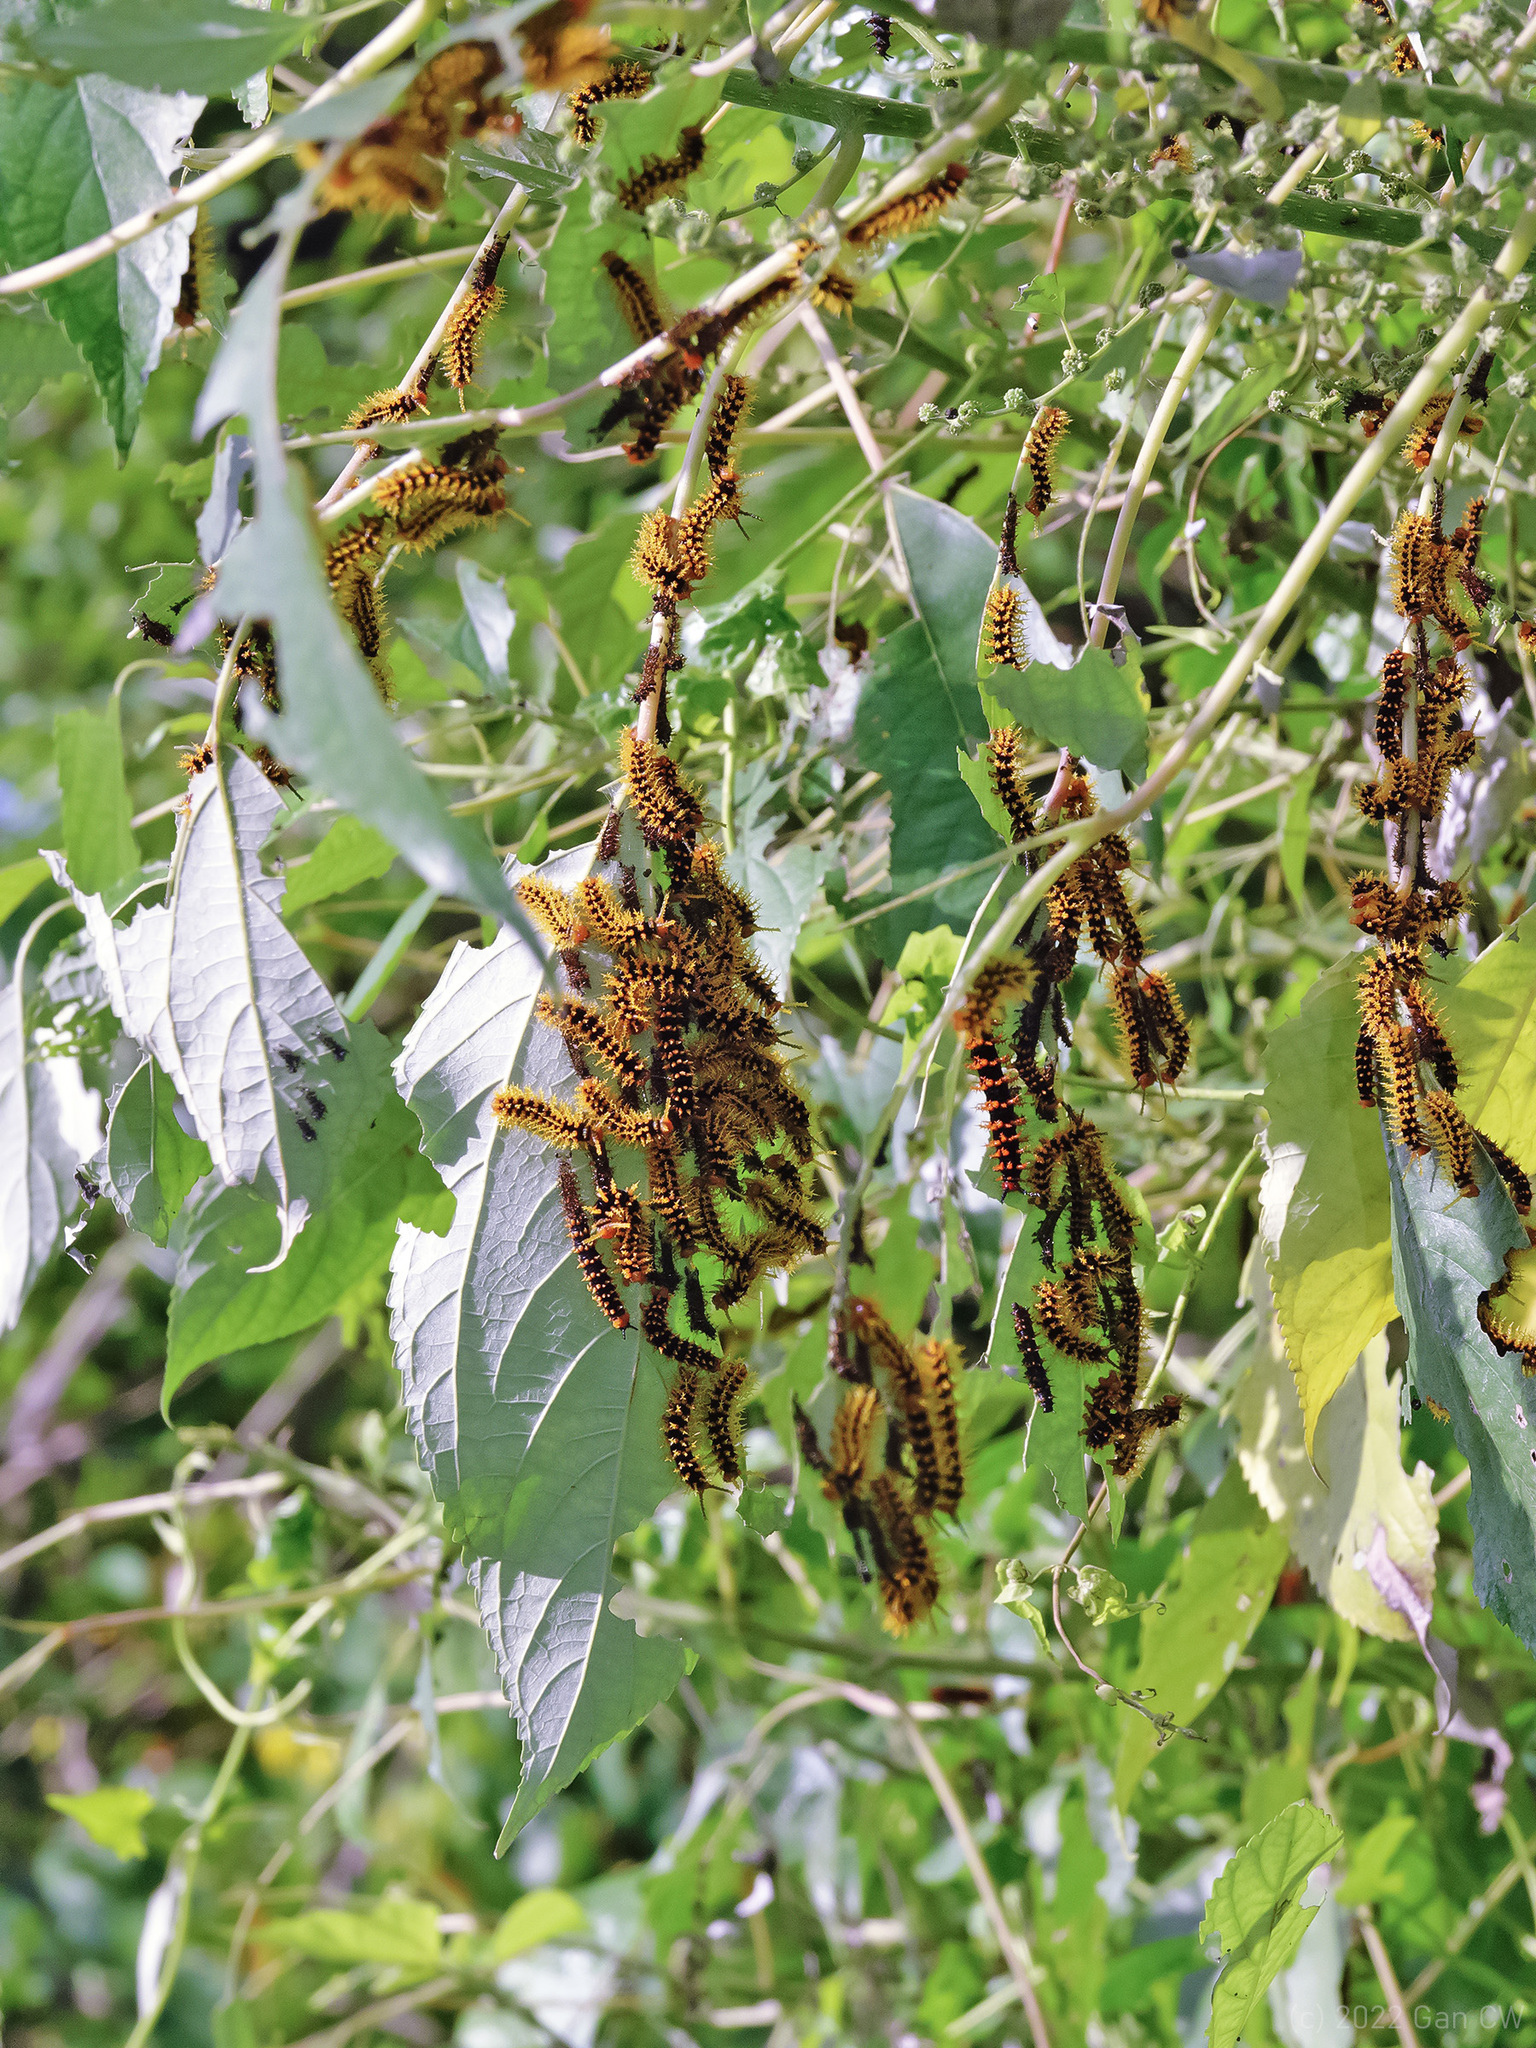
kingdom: Animalia
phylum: Arthropoda
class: Insecta
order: Lepidoptera
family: Nymphalidae
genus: Hypolimnas
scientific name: Hypolimnas anomala
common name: Malayan eggfly
